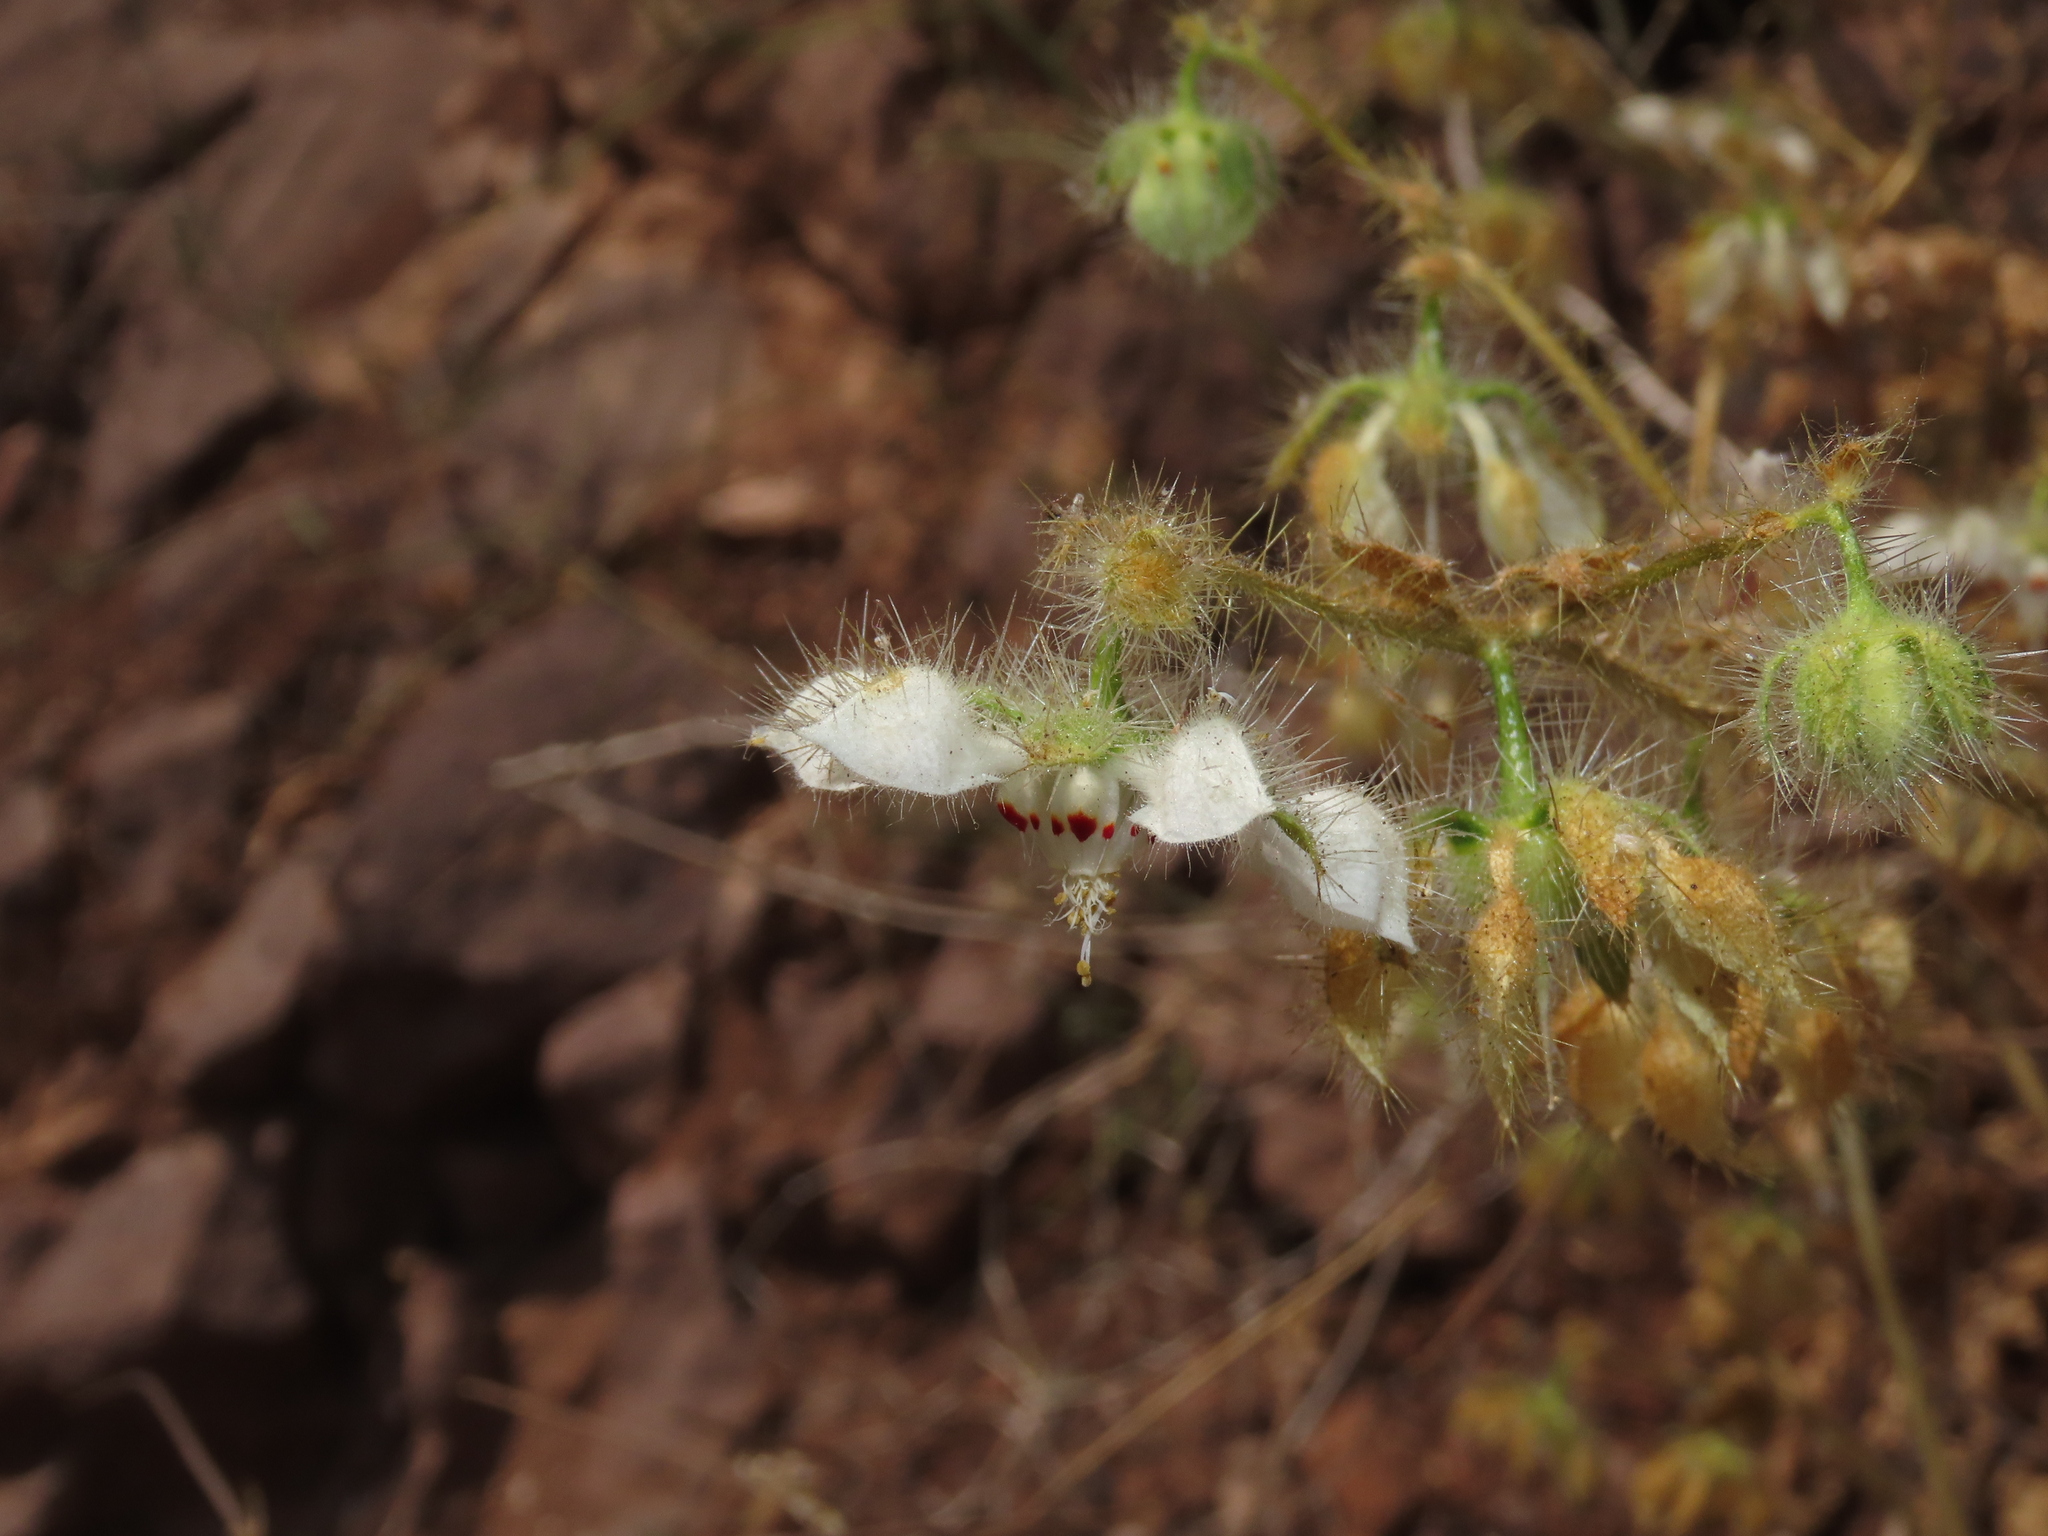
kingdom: Plantae
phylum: Tracheophyta
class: Magnoliopsida
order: Cornales
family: Loasaceae
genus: Loasa
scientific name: Loasa floribunda
